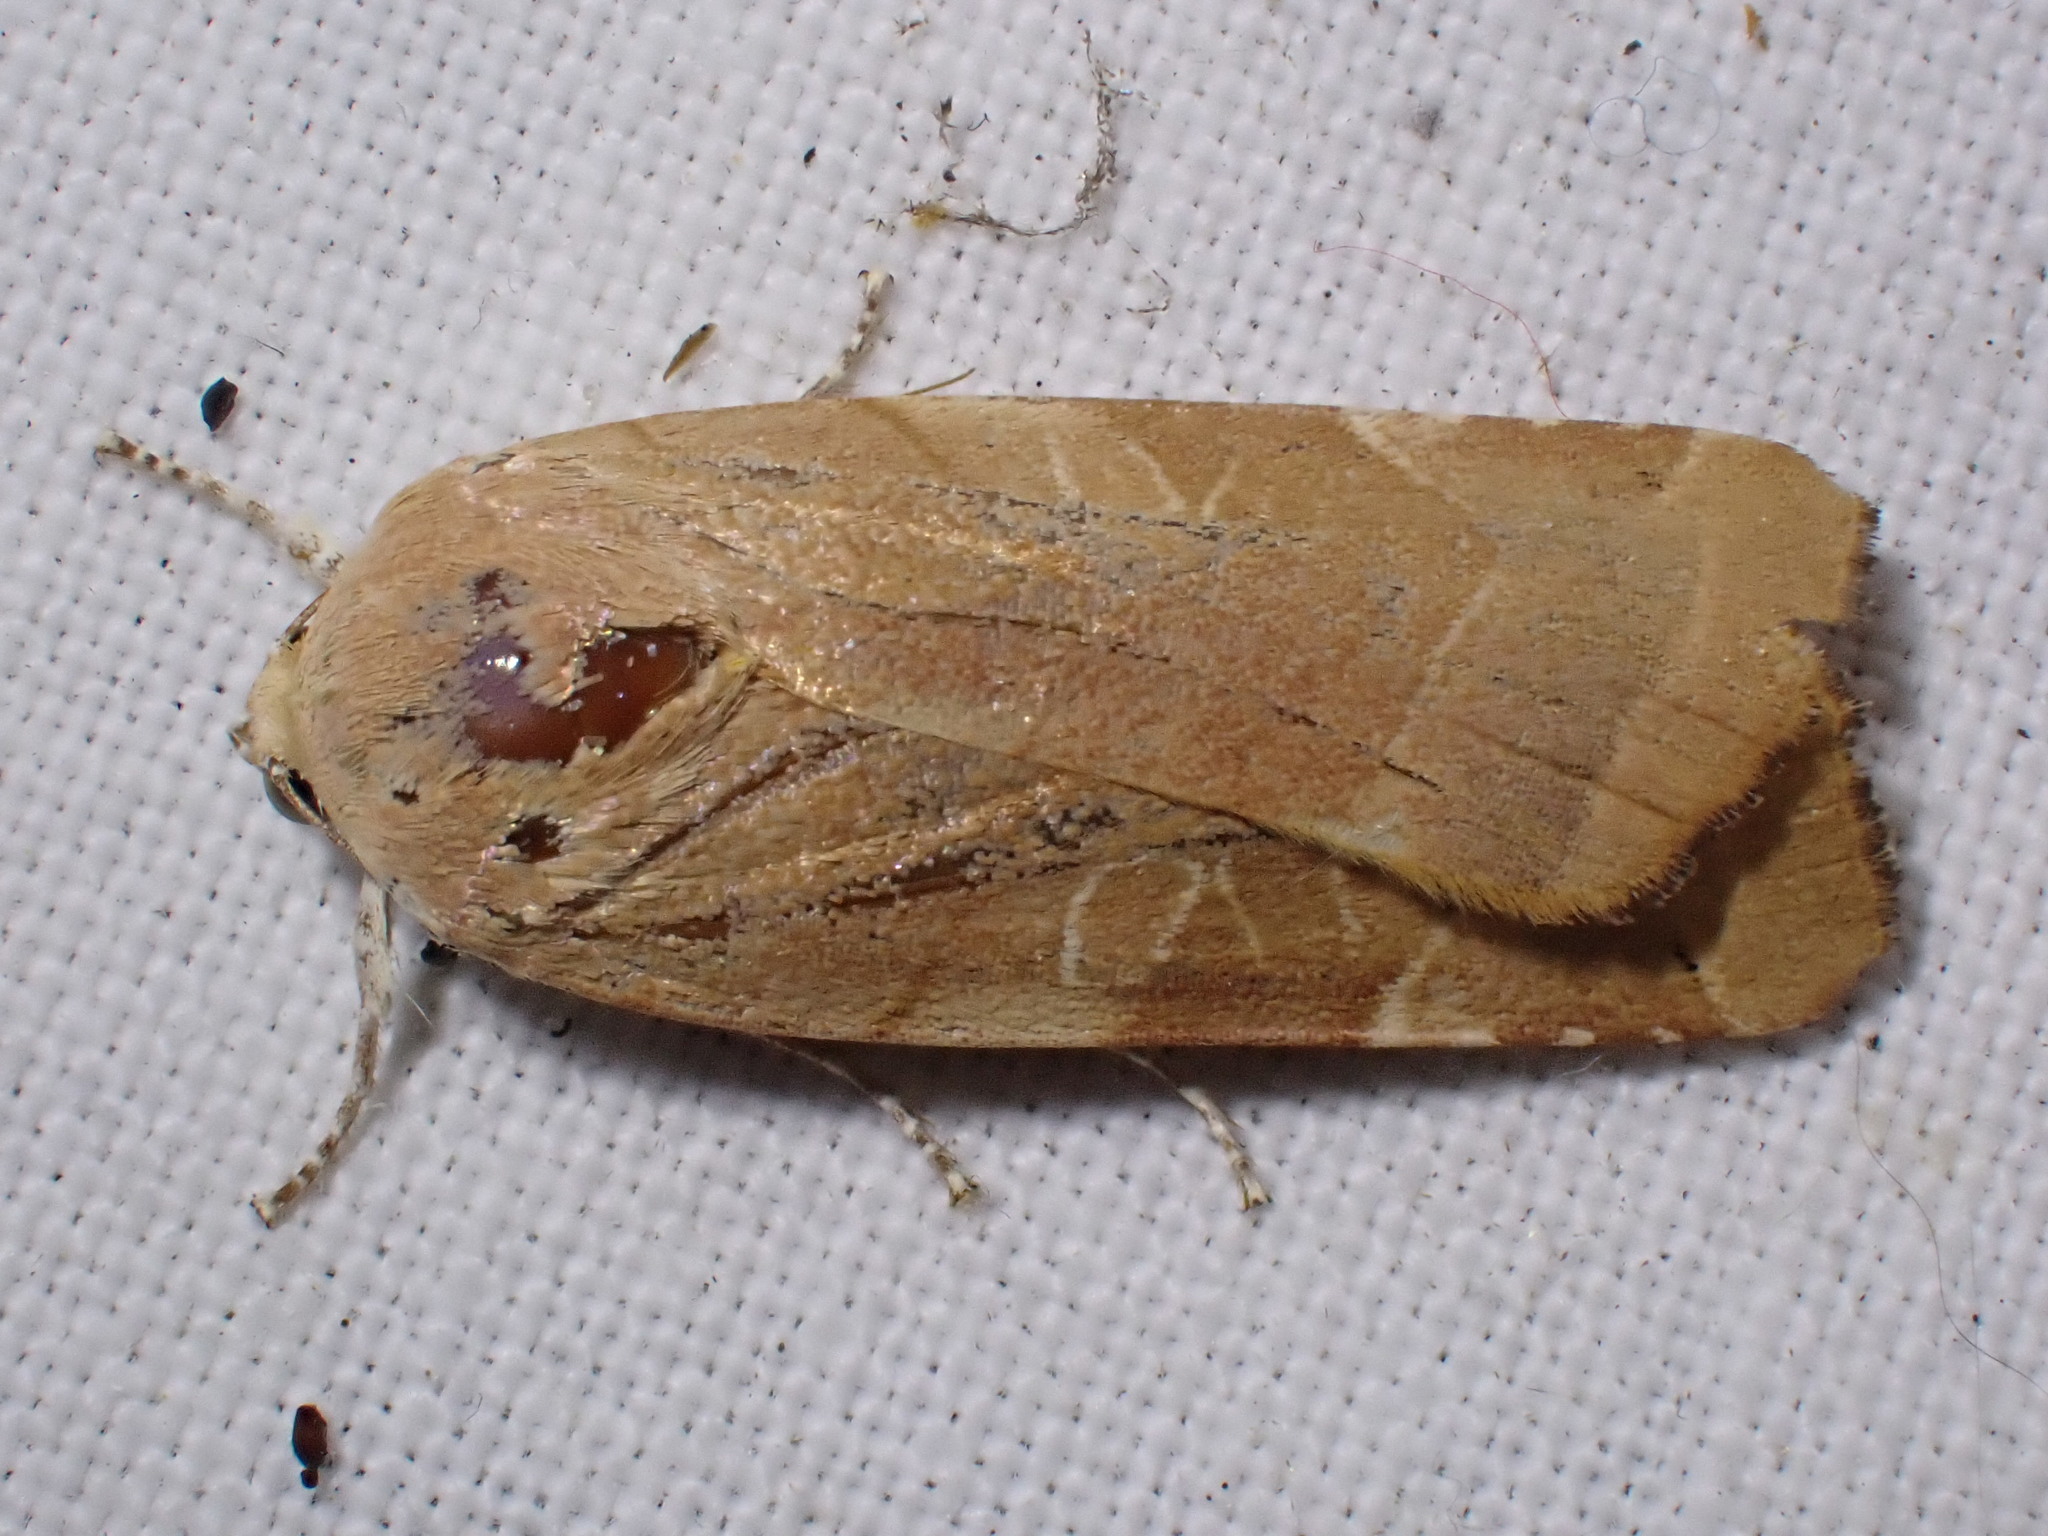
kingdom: Animalia
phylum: Arthropoda
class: Insecta
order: Lepidoptera
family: Noctuidae
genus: Noctua
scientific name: Noctua fimbriata
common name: Broad-bordered yellow underwing
